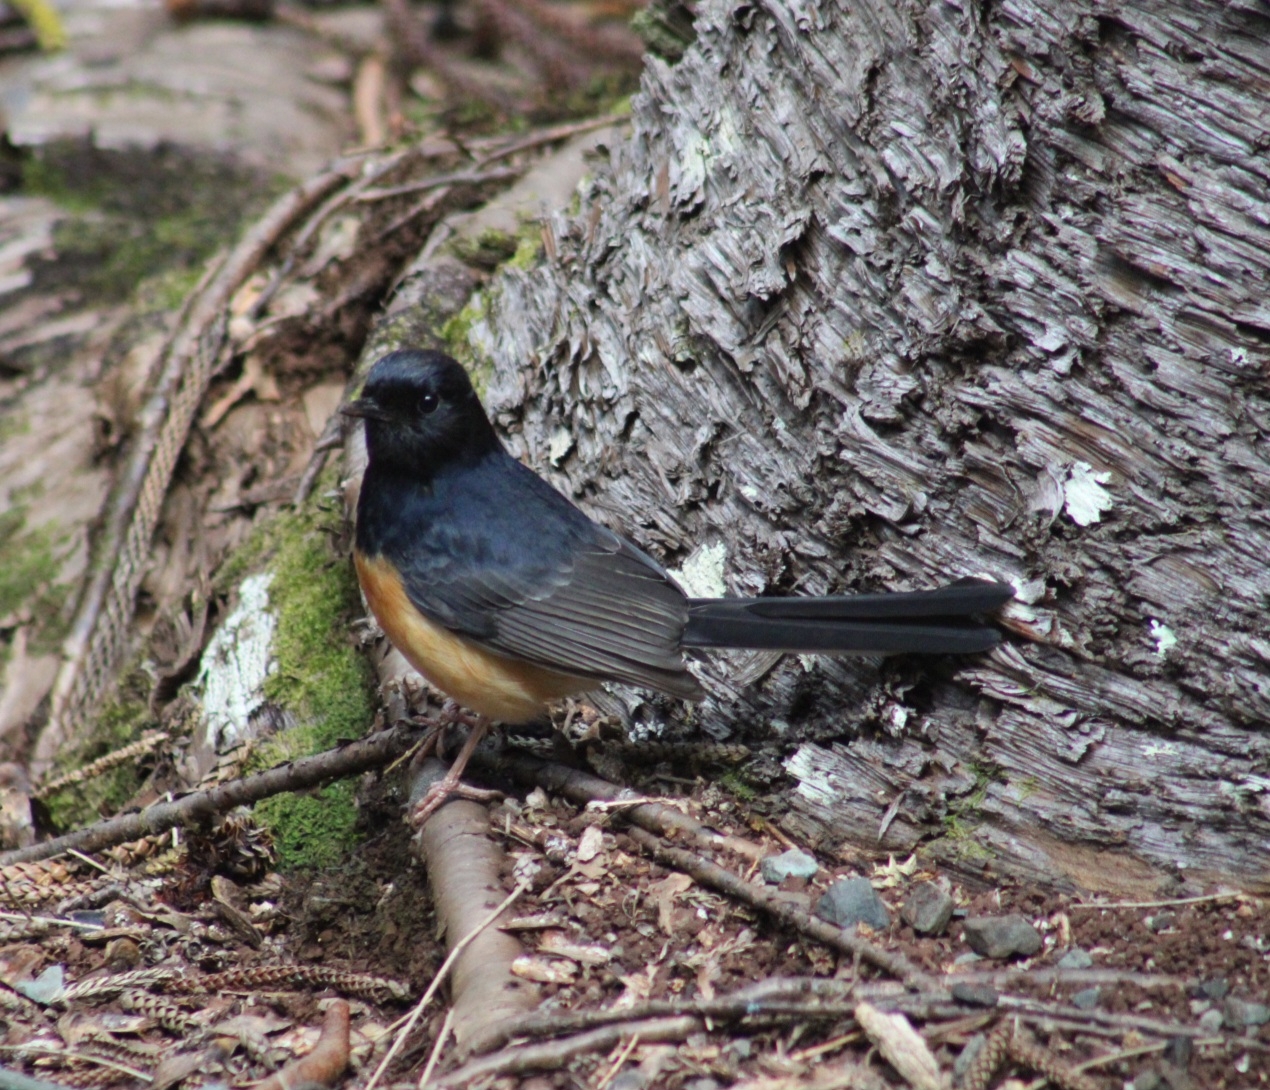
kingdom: Animalia
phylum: Chordata
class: Aves
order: Passeriformes
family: Muscicapidae
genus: Copsychus
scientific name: Copsychus malabaricus
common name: White-rumped shama
